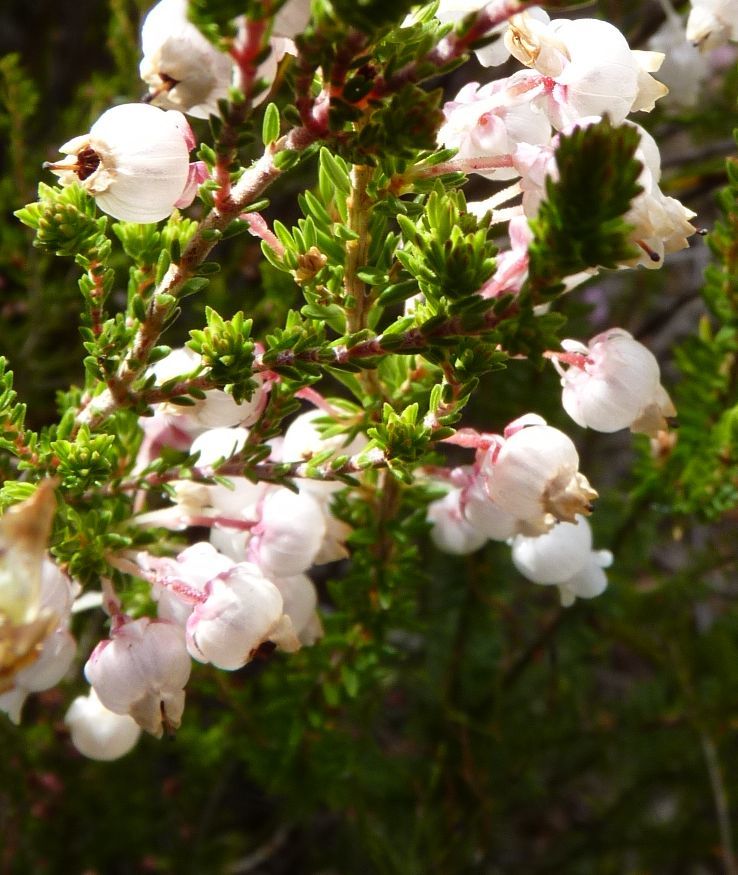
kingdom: Plantae
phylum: Tracheophyta
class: Magnoliopsida
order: Ericales
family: Ericaceae
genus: Erica
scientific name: Erica physodes
